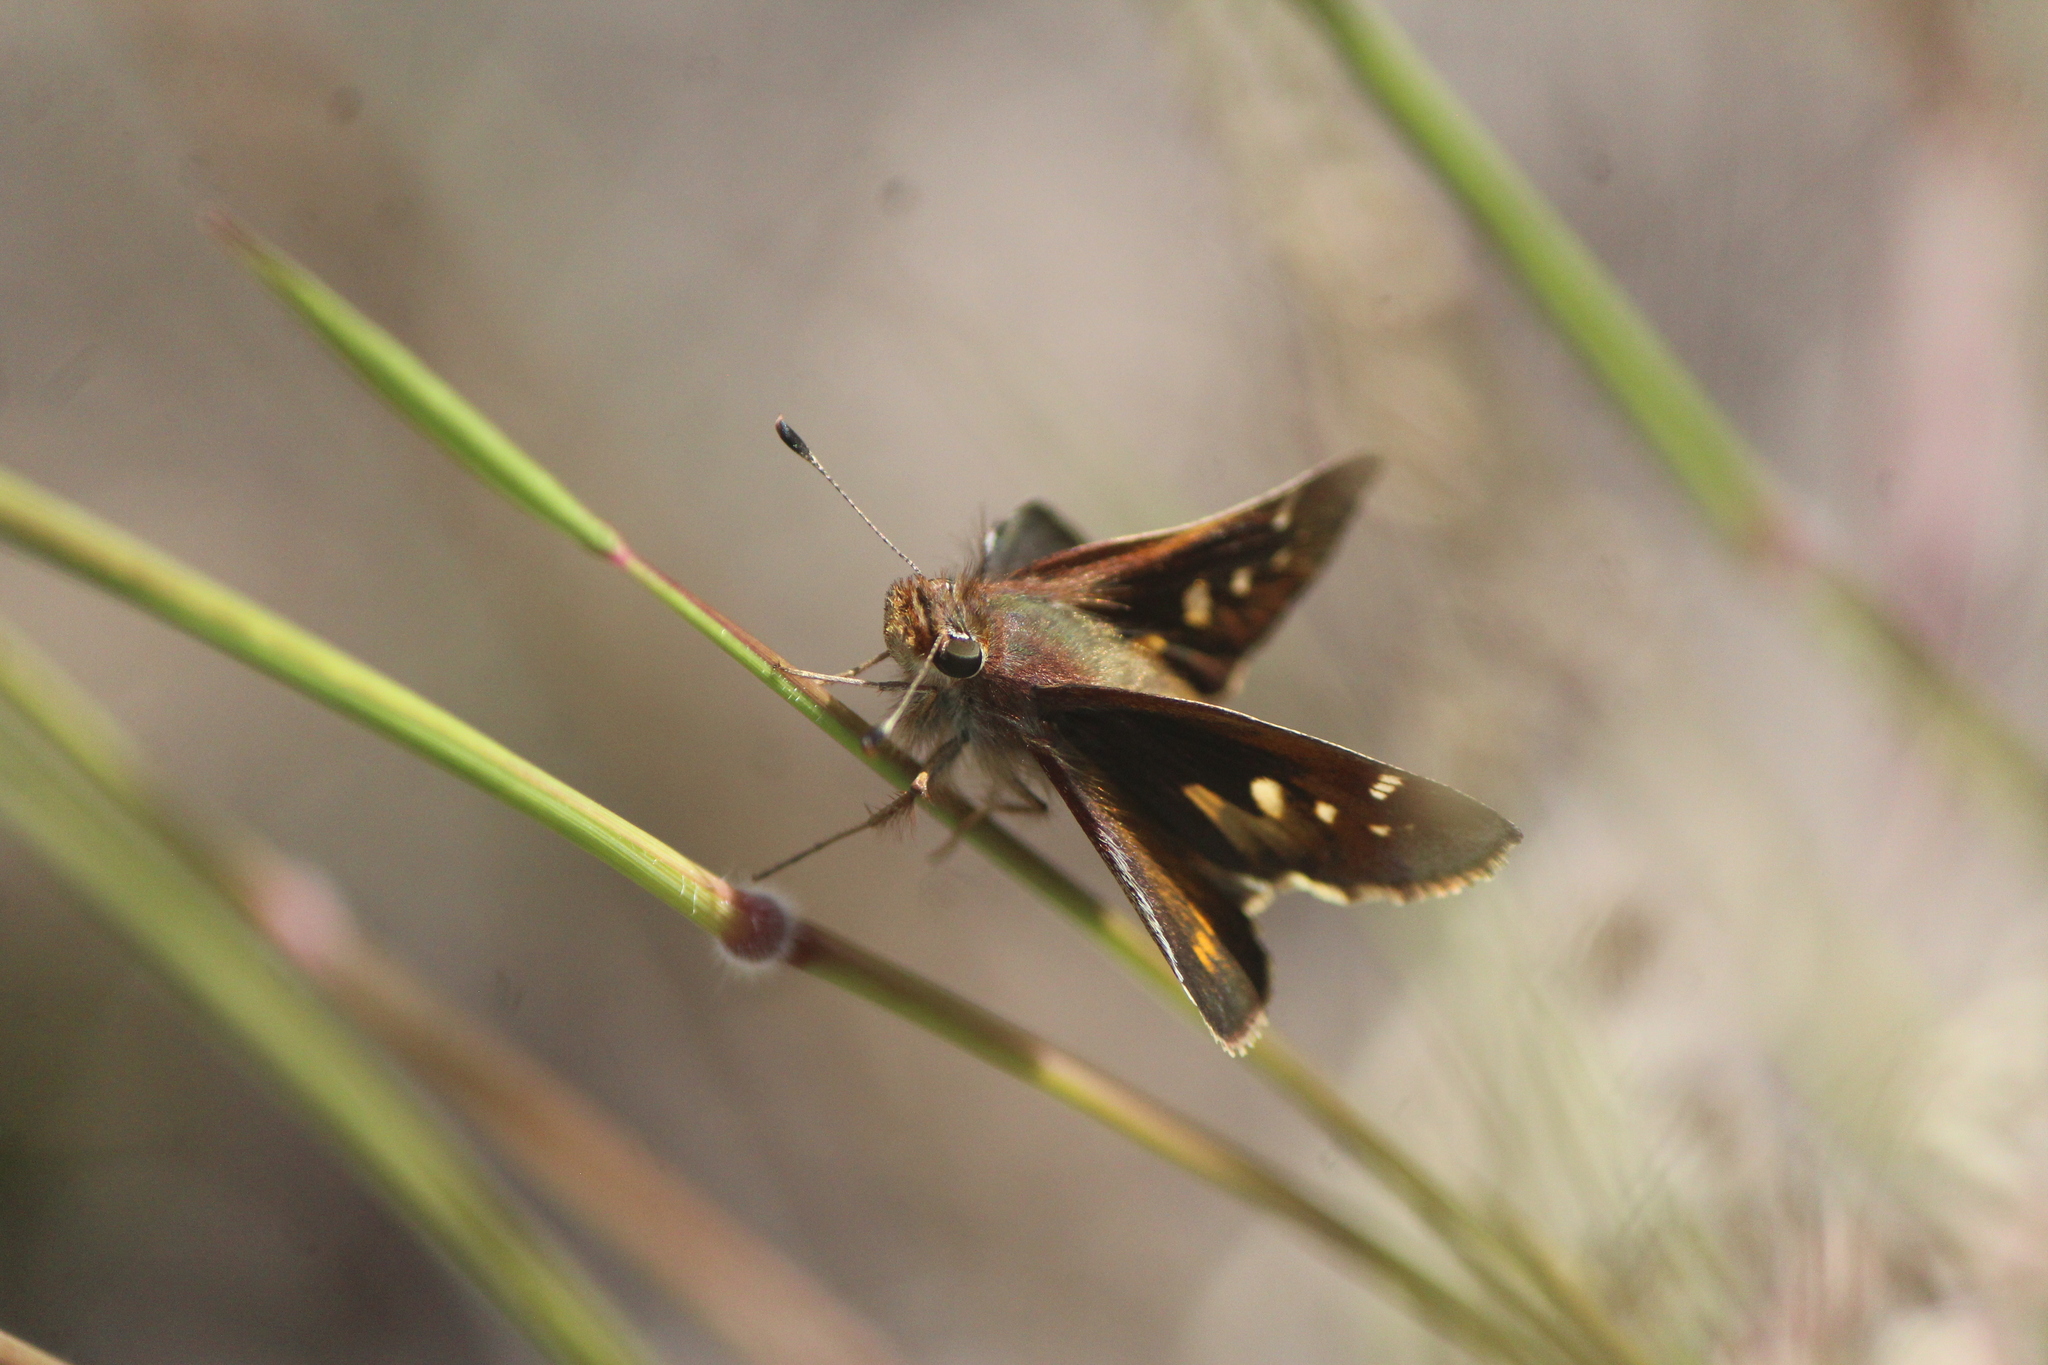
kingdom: Animalia
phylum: Arthropoda
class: Insecta
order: Lepidoptera
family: Hesperiidae
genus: Lon
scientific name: Lon
